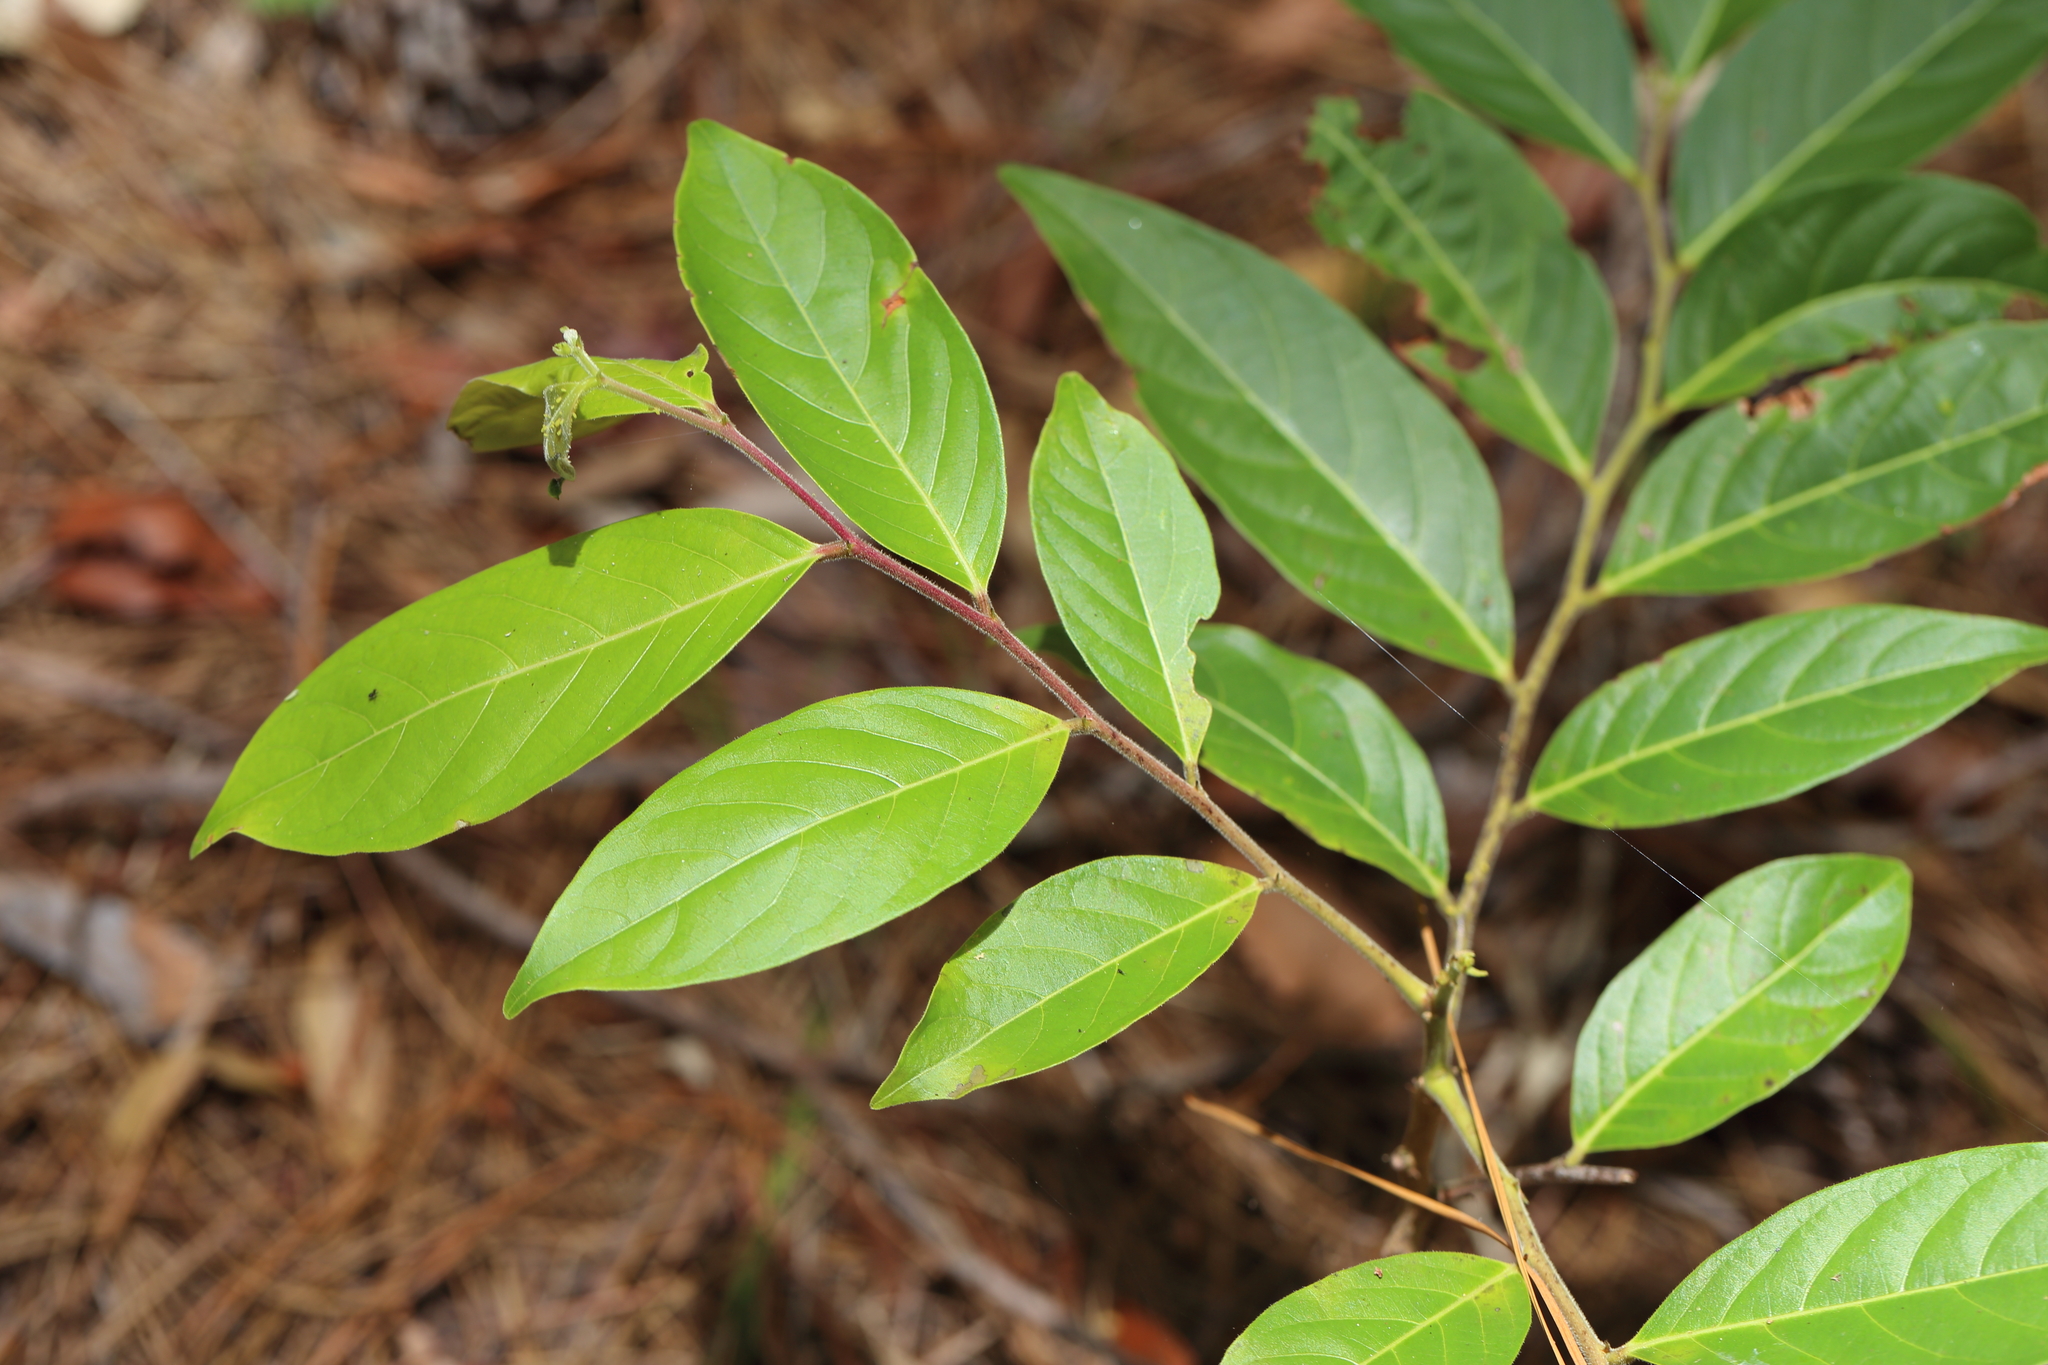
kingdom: Plantae
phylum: Tracheophyta
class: Magnoliopsida
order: Malpighiales
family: Phyllanthaceae
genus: Glochidion
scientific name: Glochidion zeylanicum
